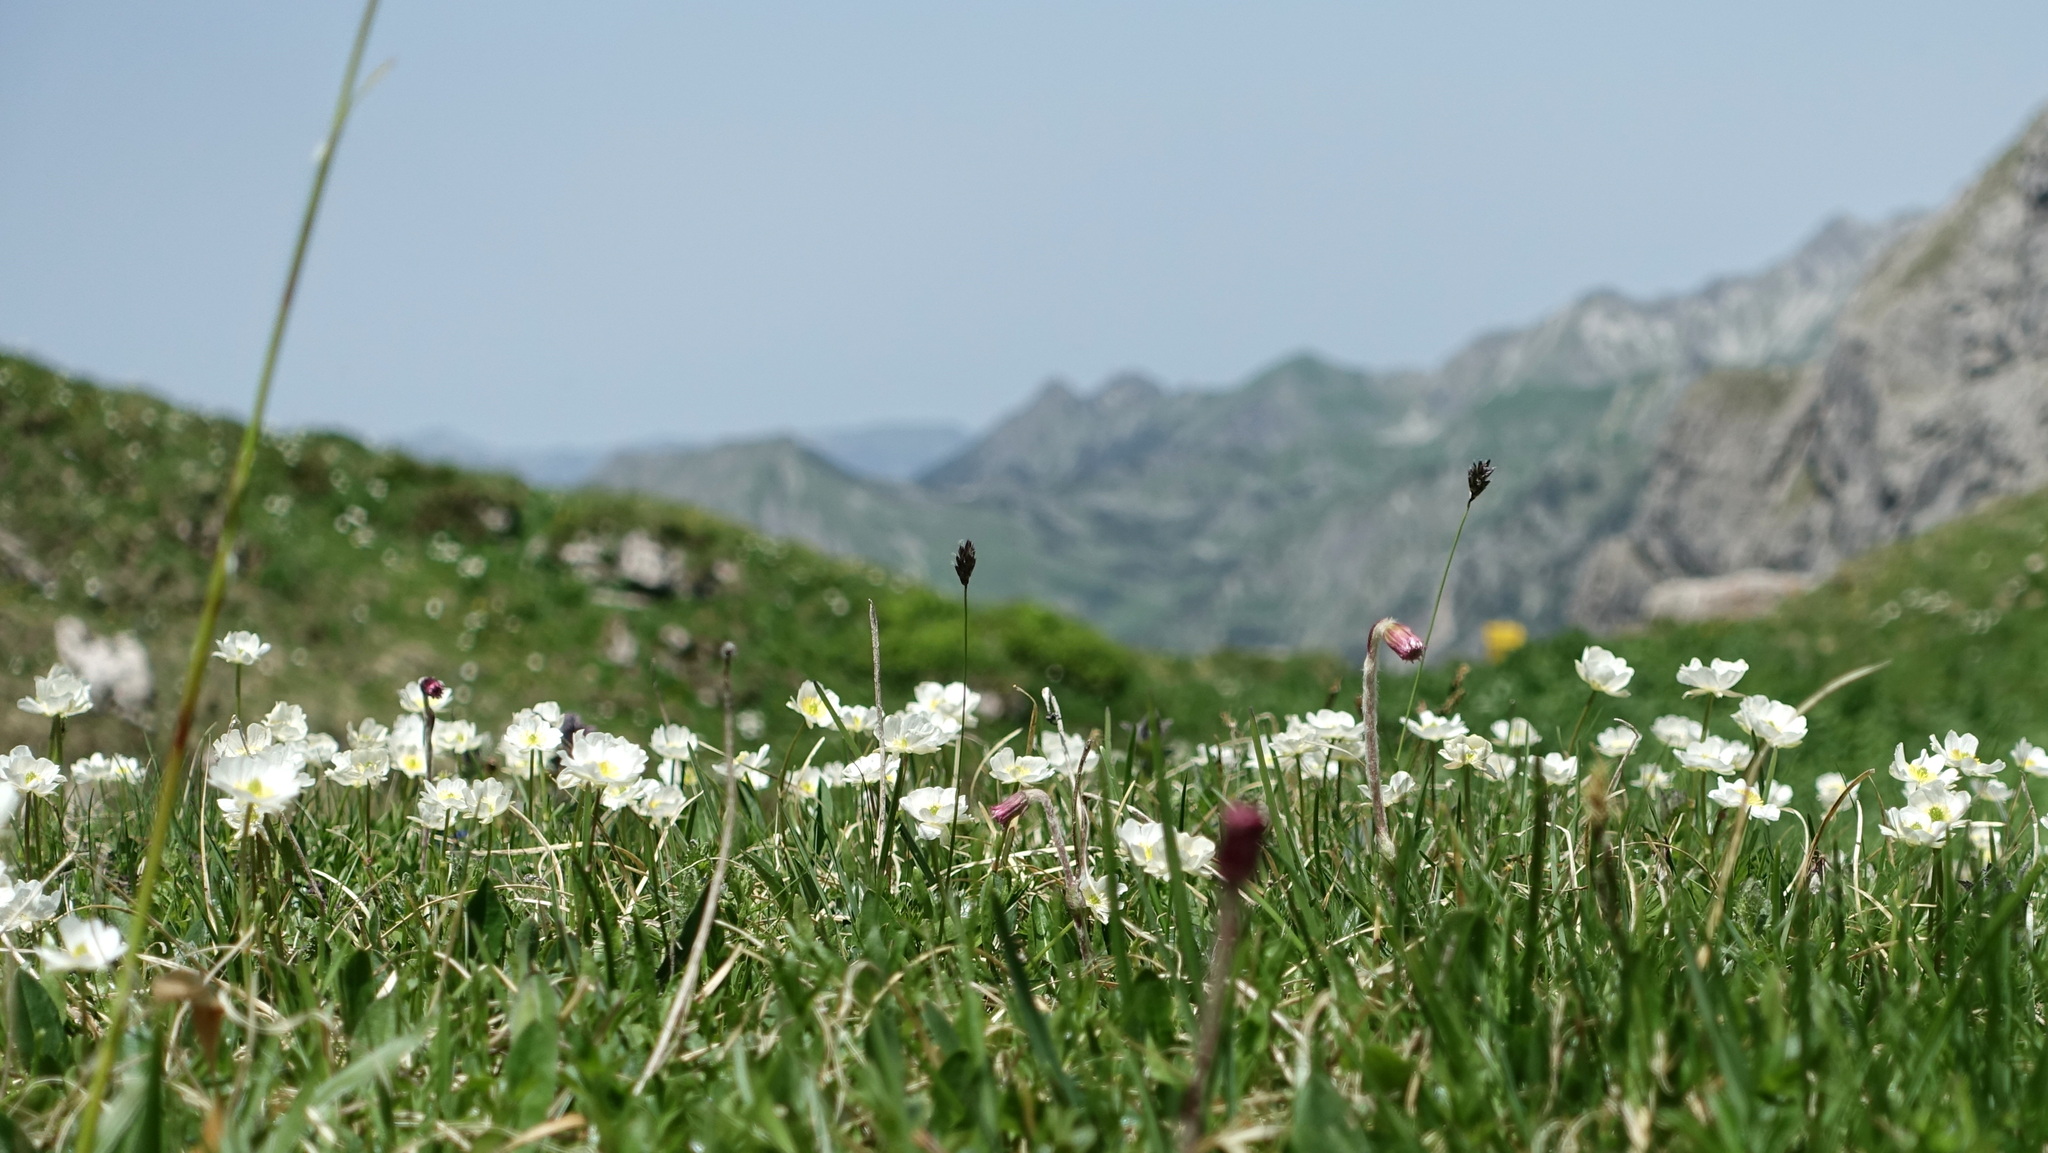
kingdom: Plantae
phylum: Tracheophyta
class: Magnoliopsida
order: Ranunculales
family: Ranunculaceae
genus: Ranunculus
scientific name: Ranunculus alpestris
